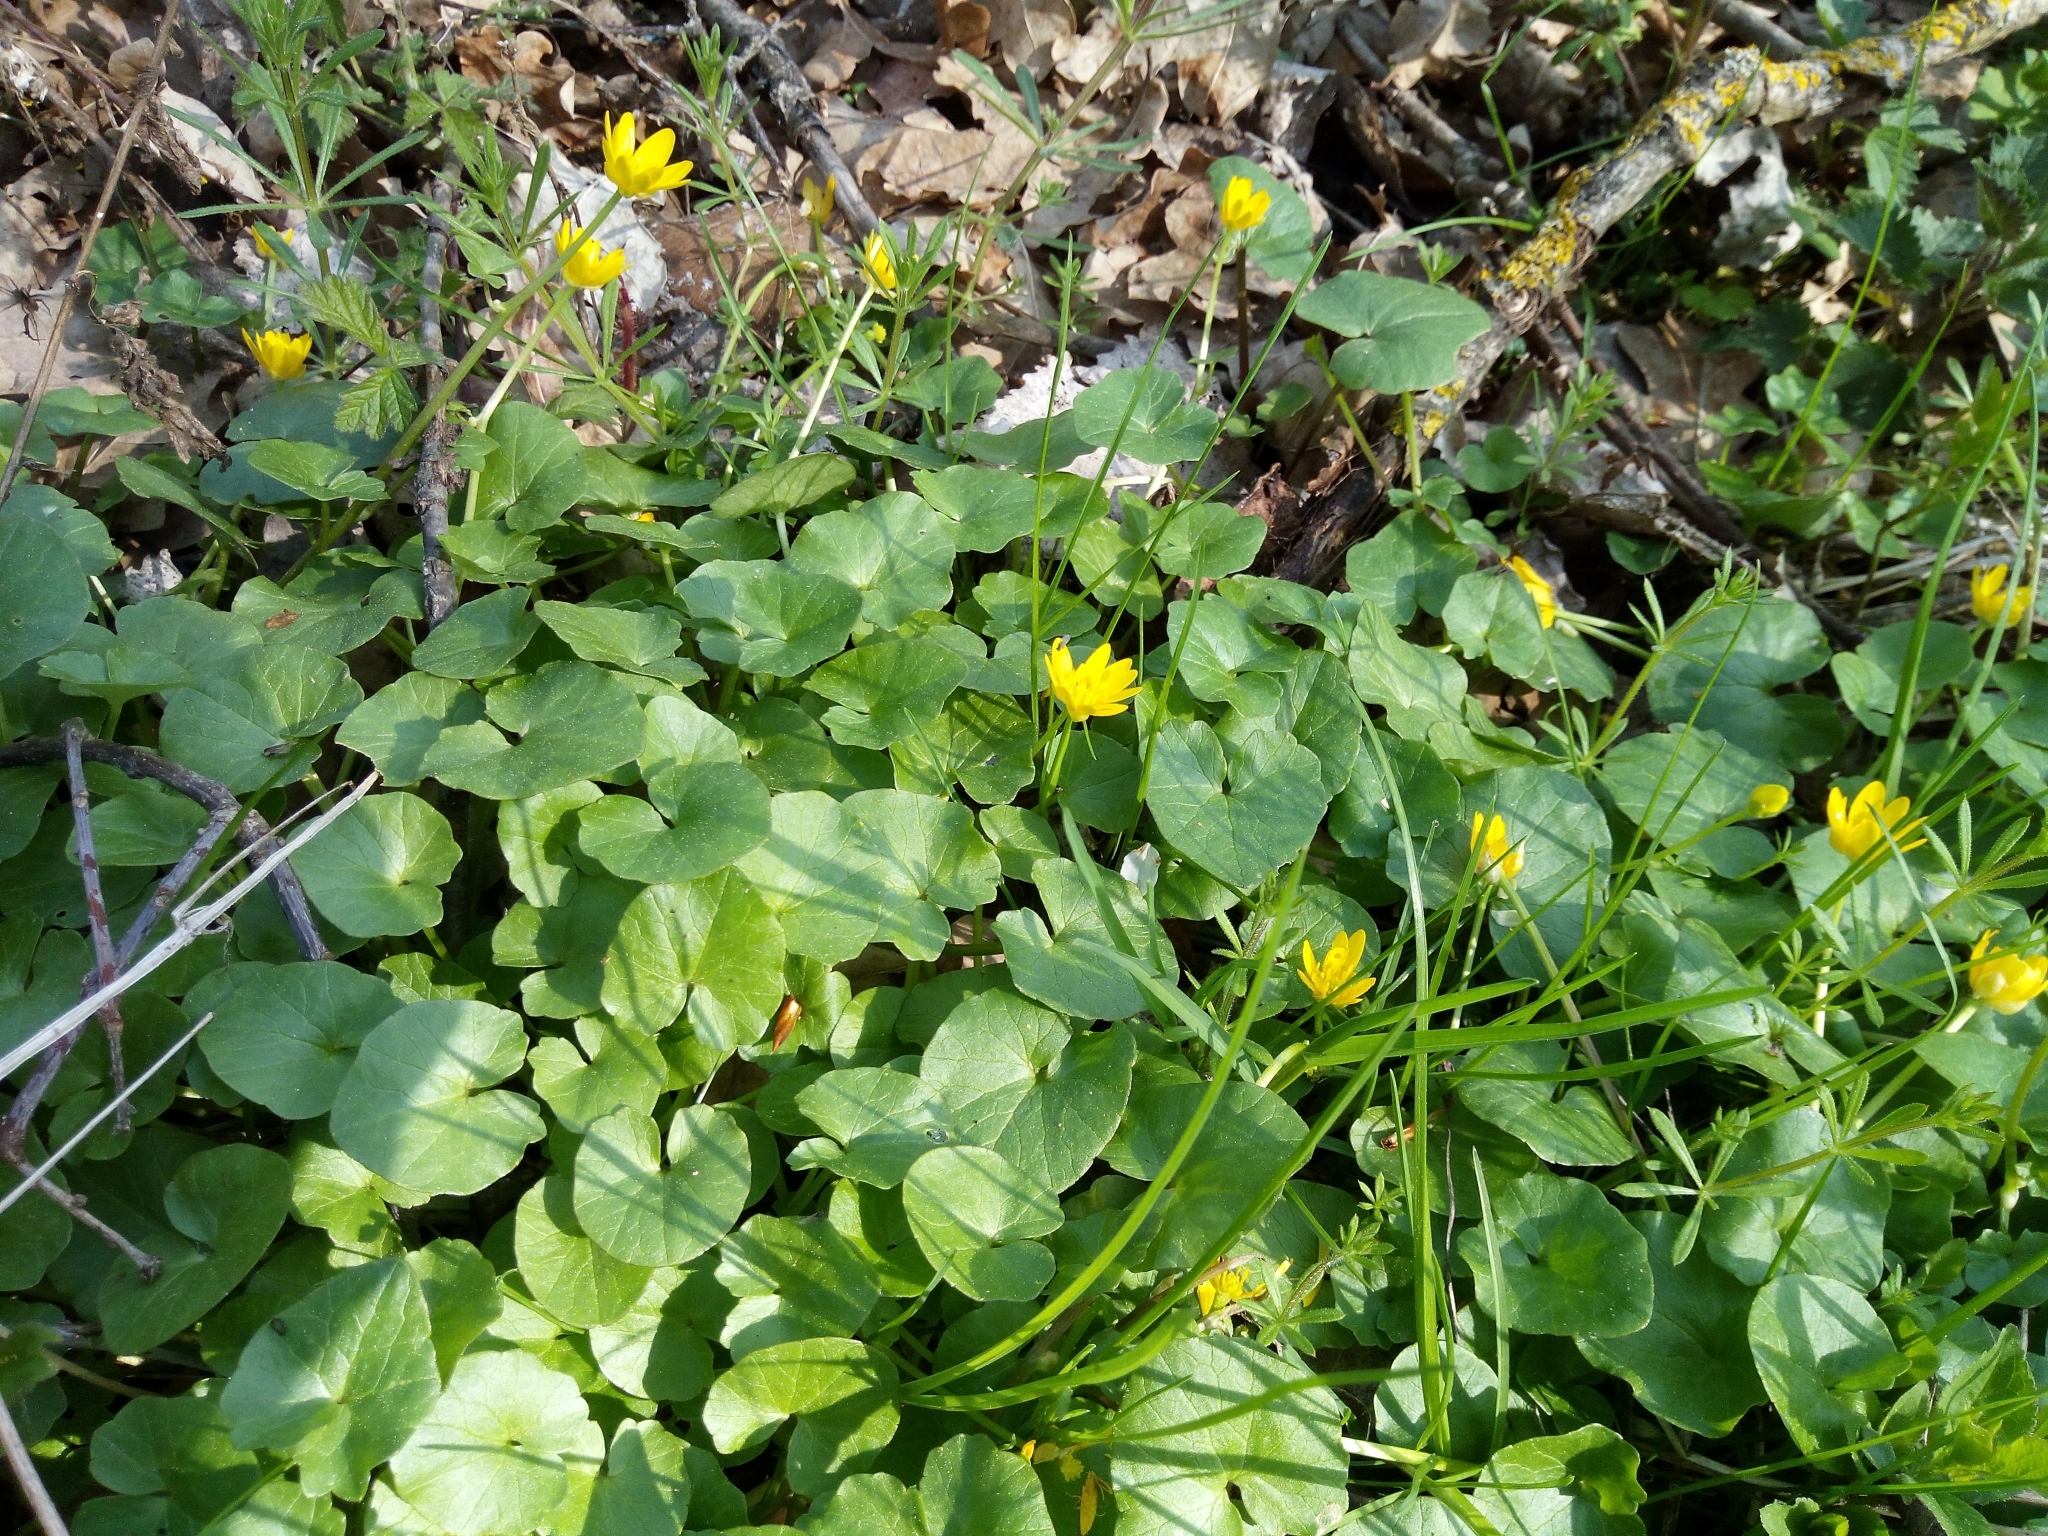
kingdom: Plantae
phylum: Tracheophyta
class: Magnoliopsida
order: Ranunculales
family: Ranunculaceae
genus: Ficaria
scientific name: Ficaria verna
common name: Lesser celandine
